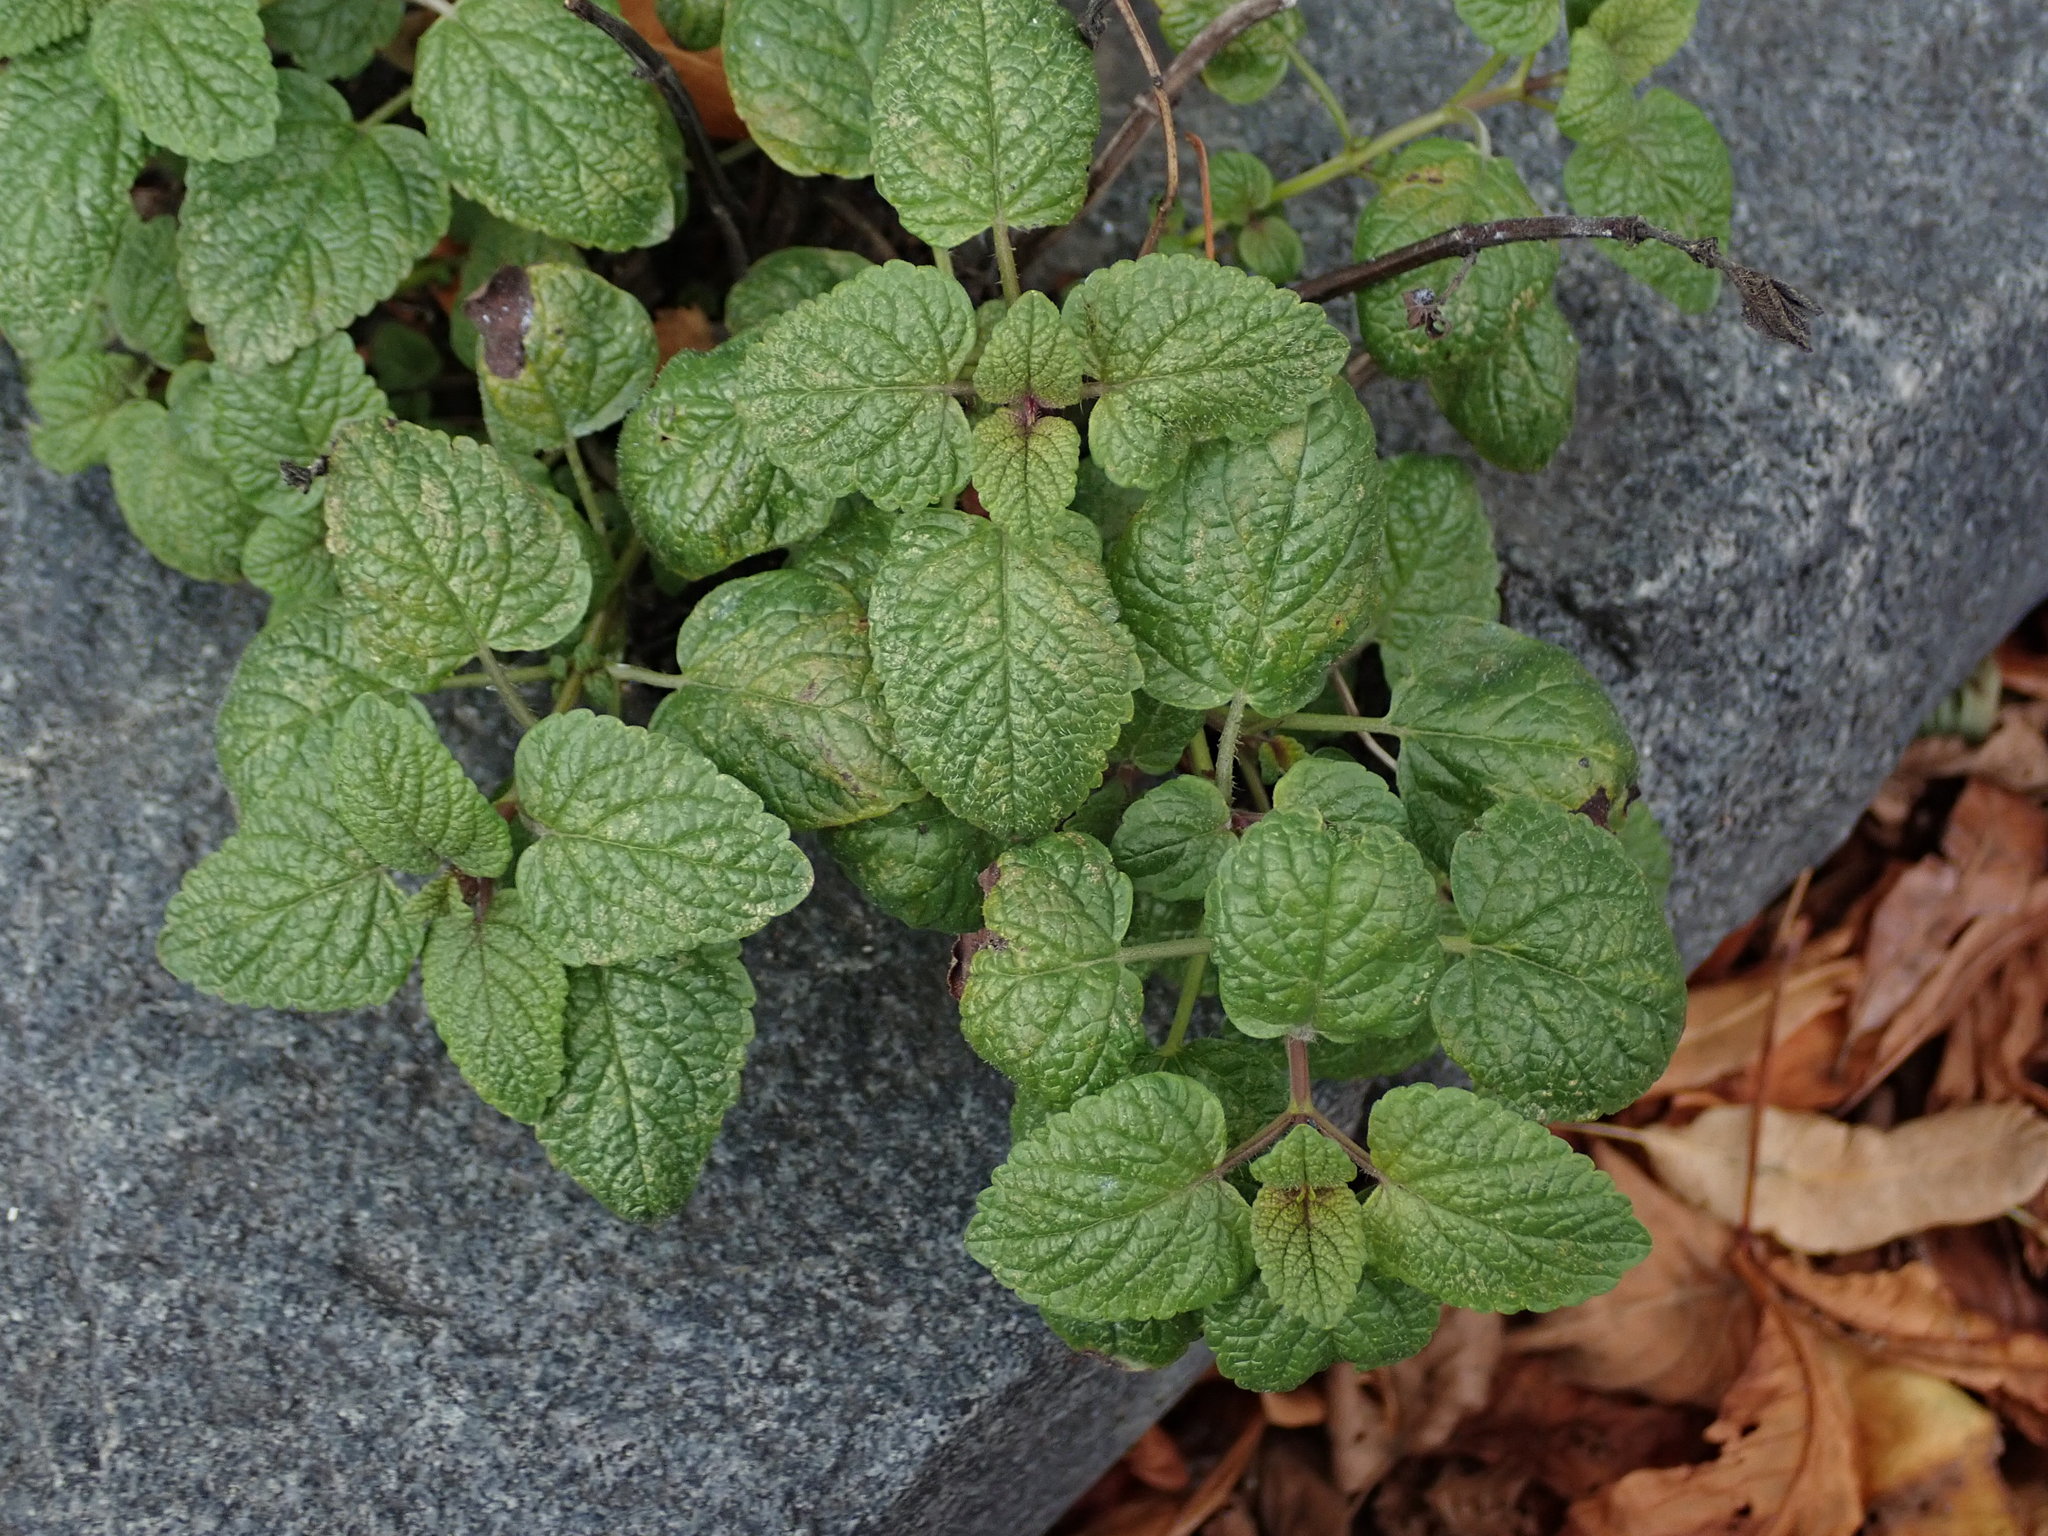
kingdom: Plantae
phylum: Tracheophyta
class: Magnoliopsida
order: Lamiales
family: Lamiaceae
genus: Melissa
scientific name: Melissa officinalis
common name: Balm
